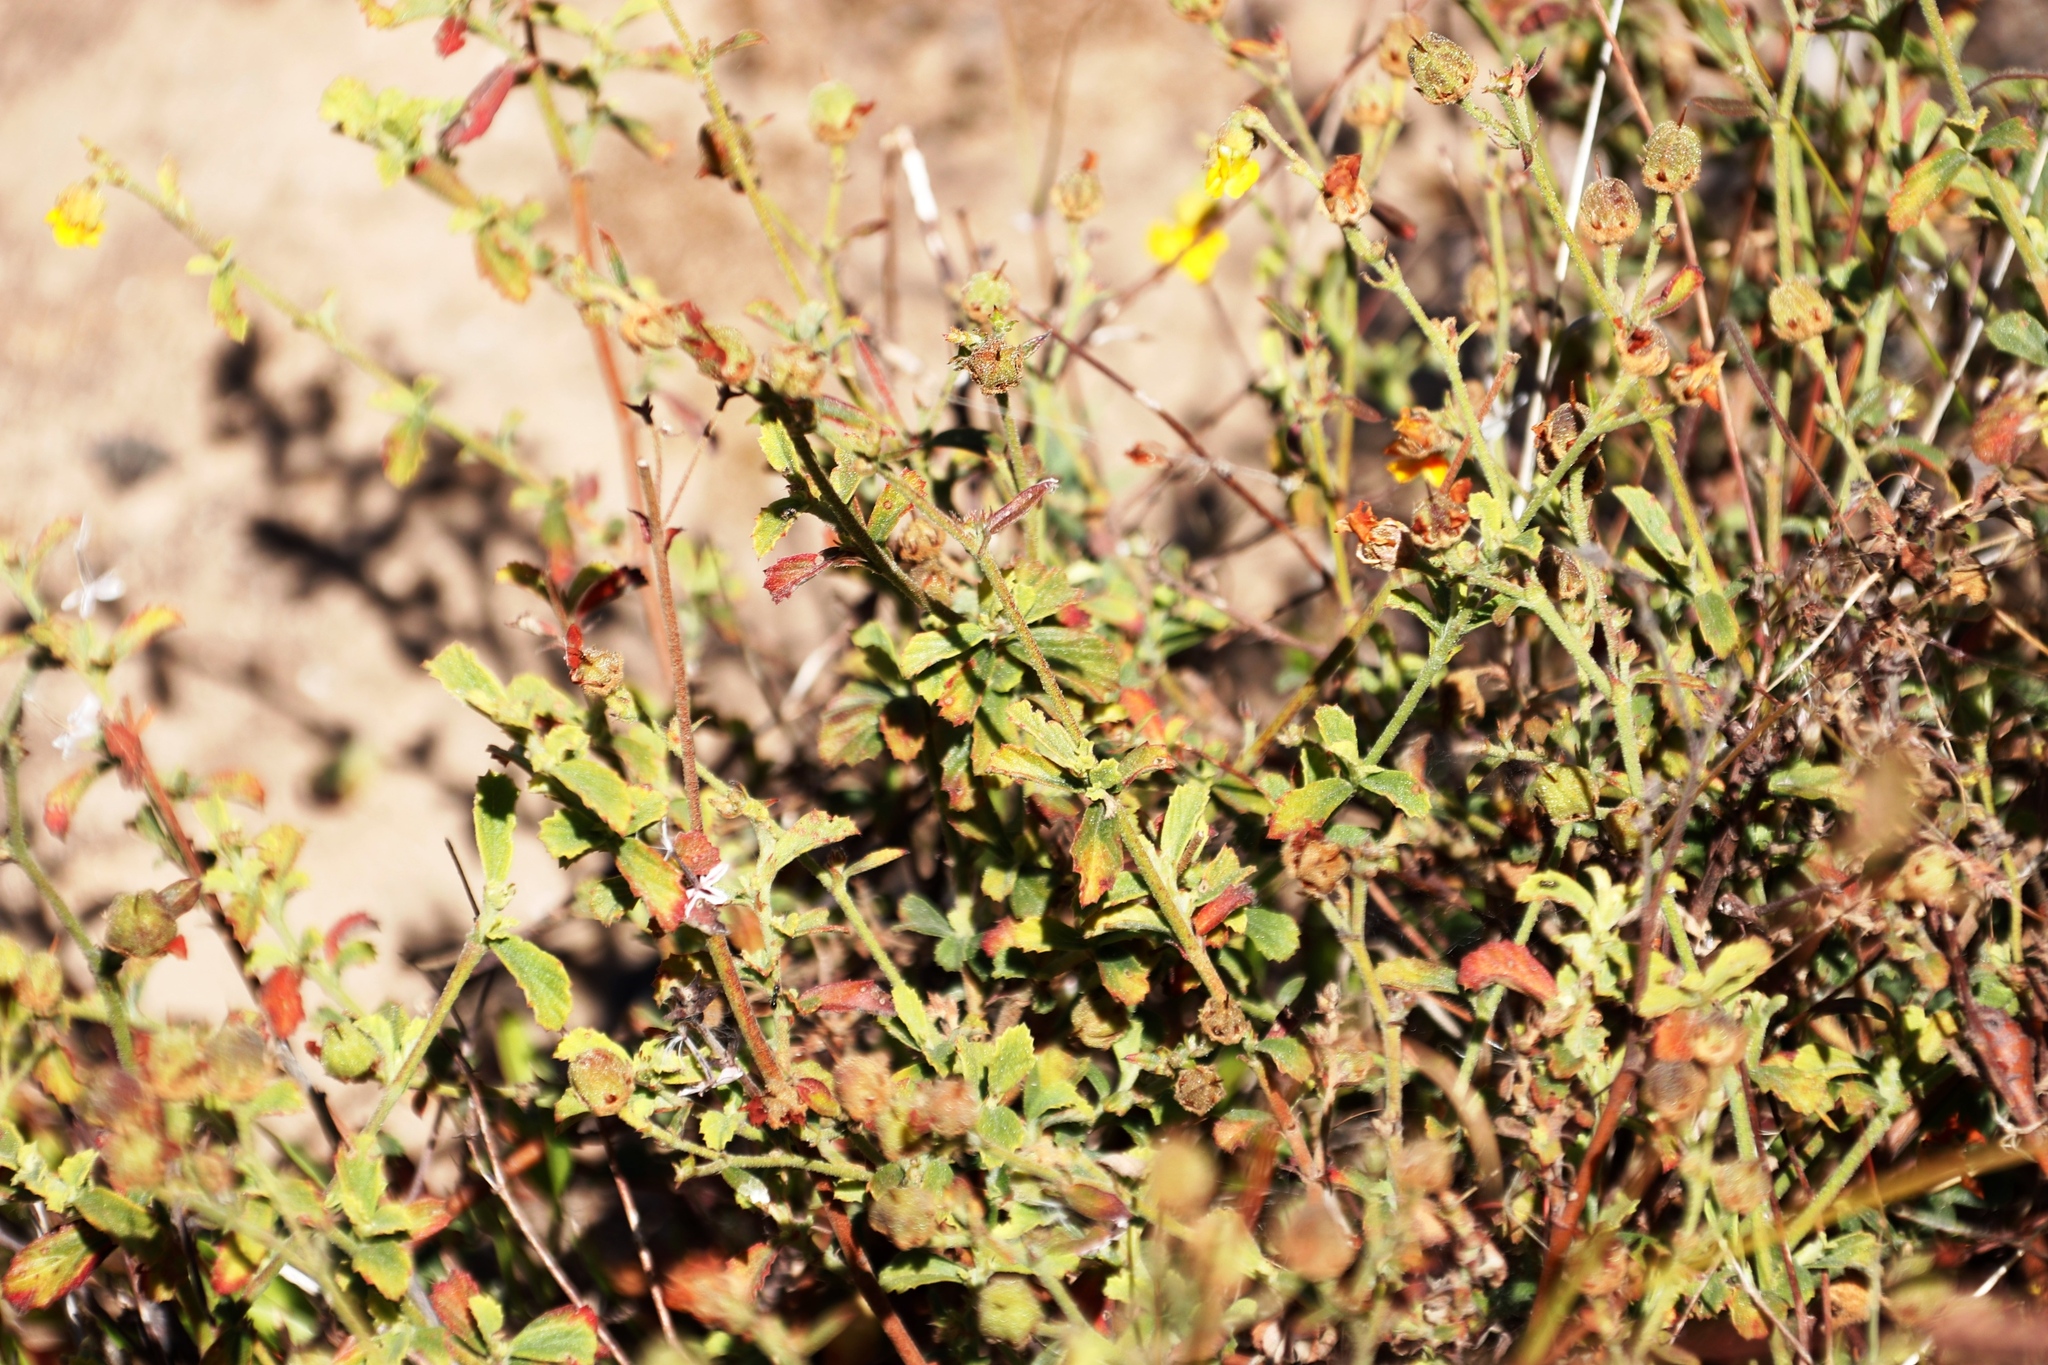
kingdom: Plantae
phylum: Tracheophyta
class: Magnoliopsida
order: Malvales
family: Malvaceae
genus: Hermannia
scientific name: Hermannia multiflora
